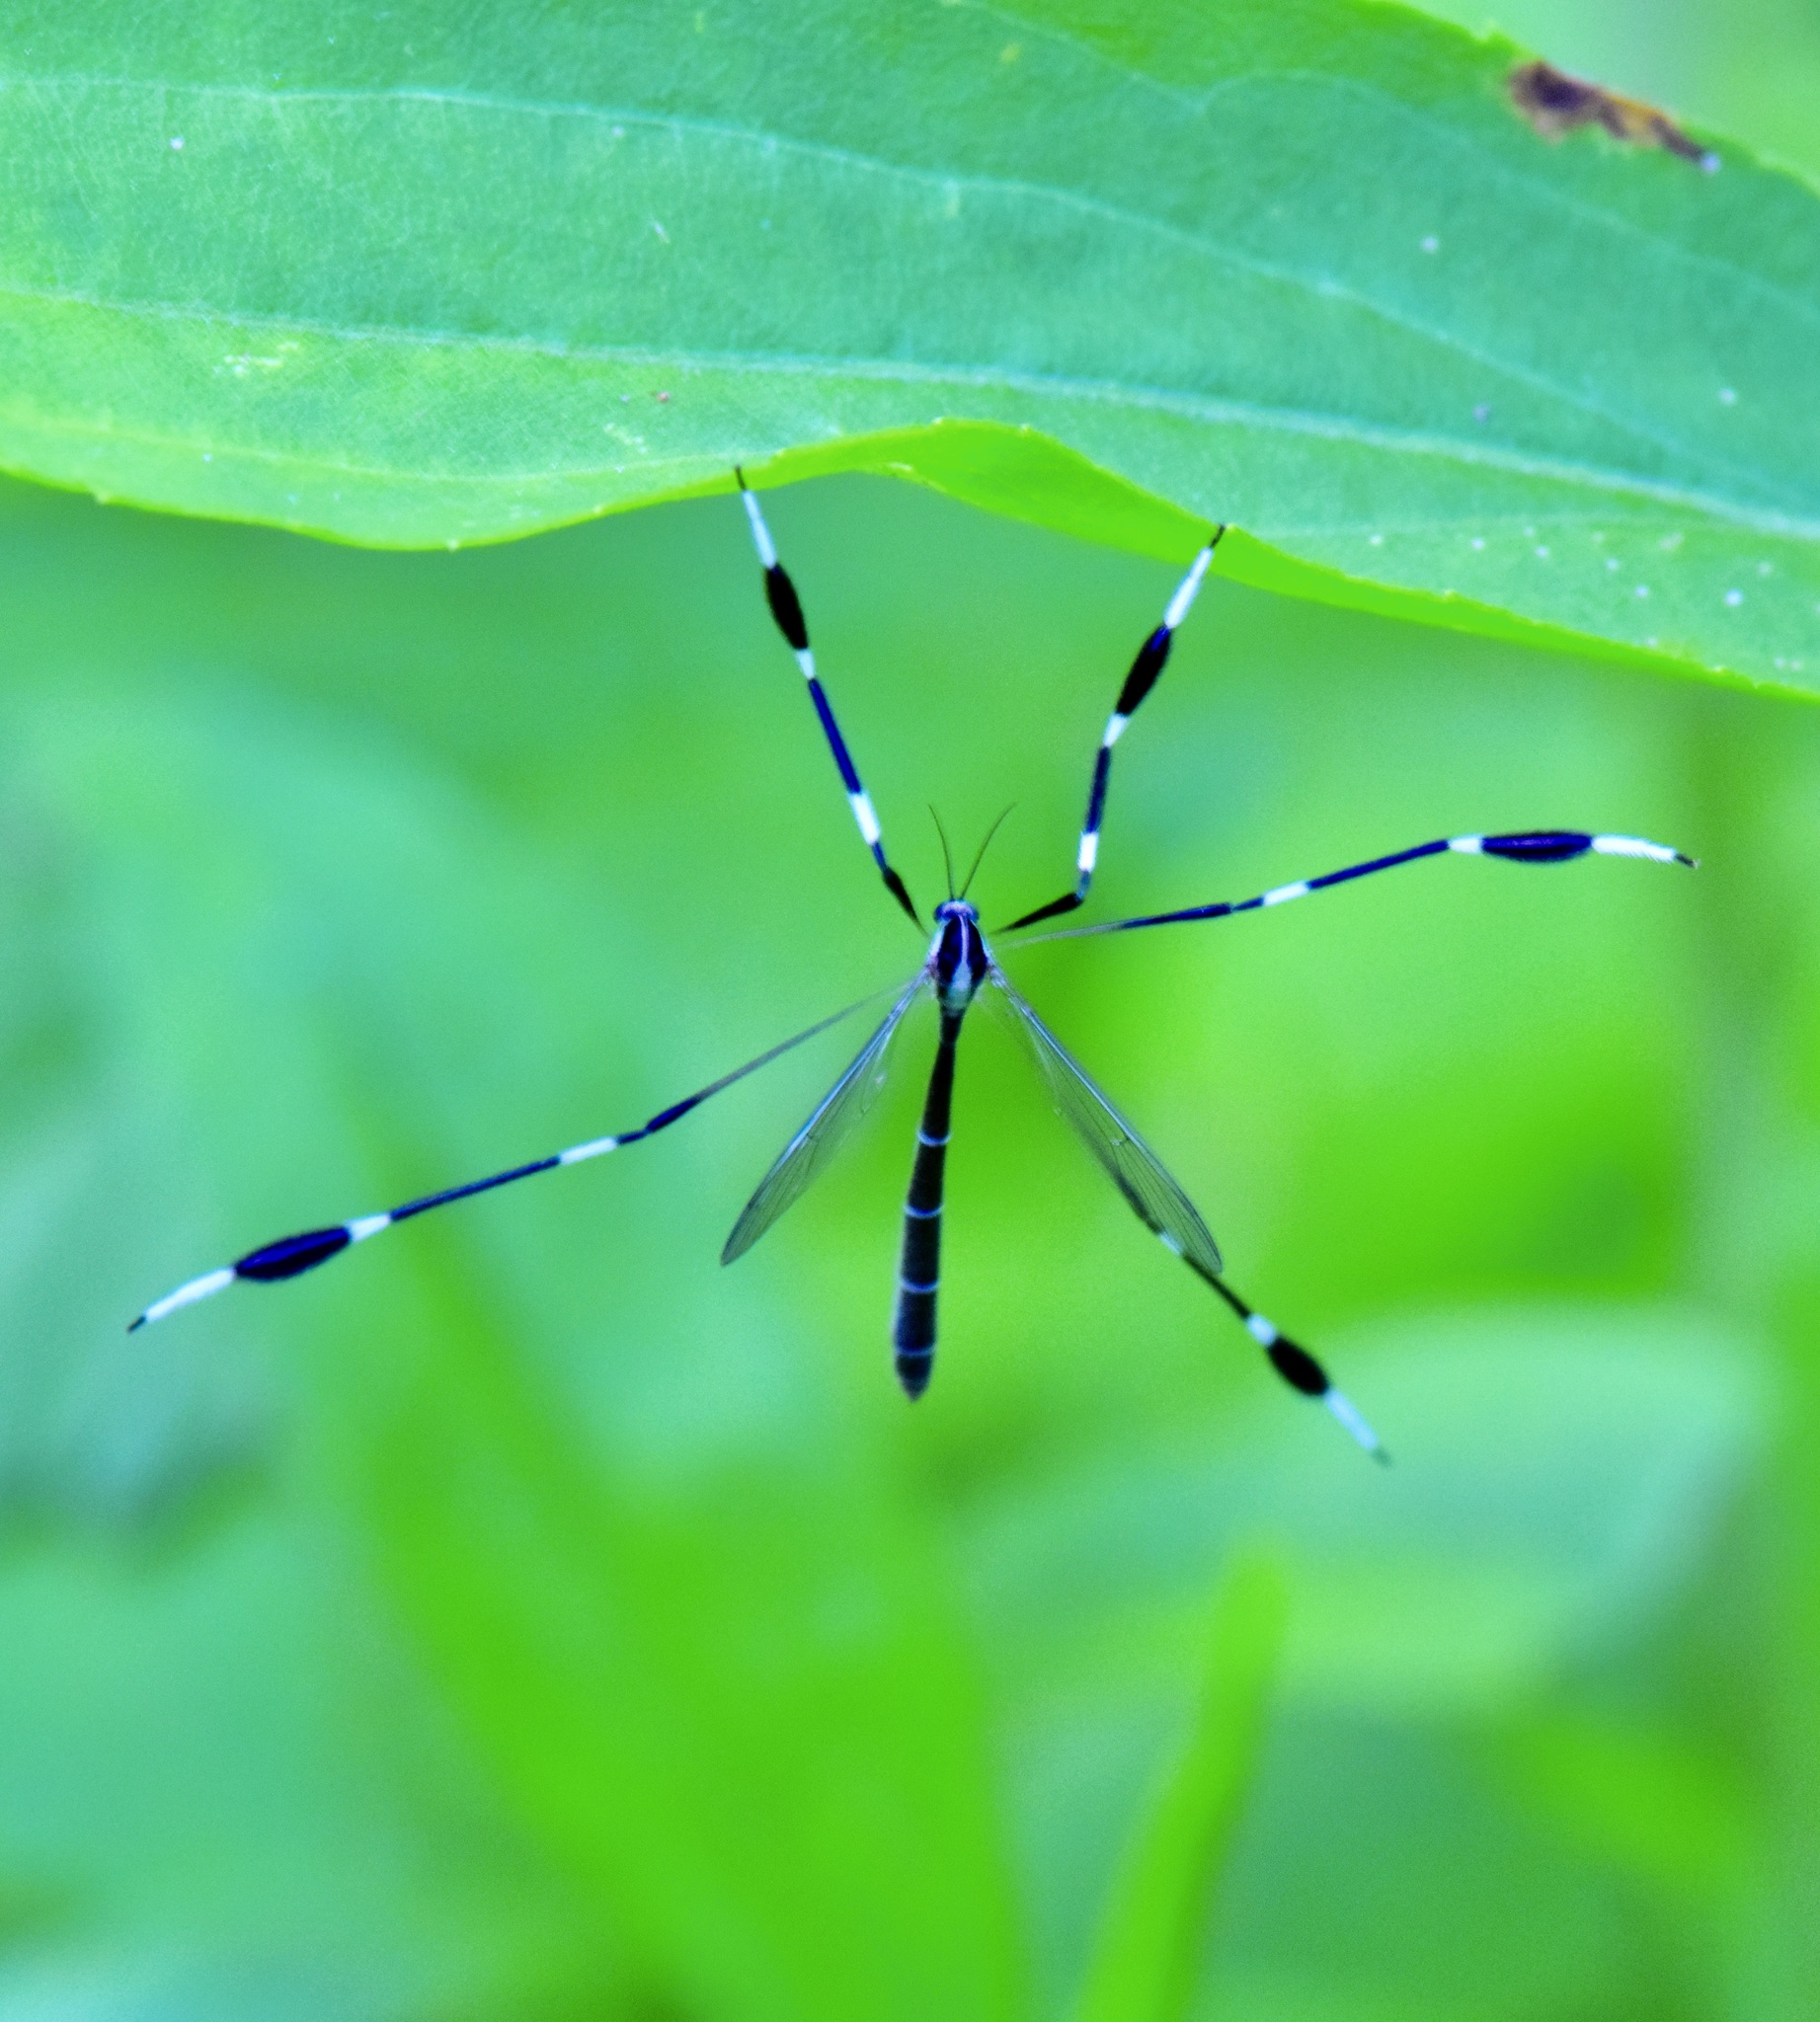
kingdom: Animalia
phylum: Arthropoda
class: Insecta
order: Diptera
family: Ptychopteridae
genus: Bittacomorpha
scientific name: Bittacomorpha clavipes
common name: Eastern phantom crane fly
